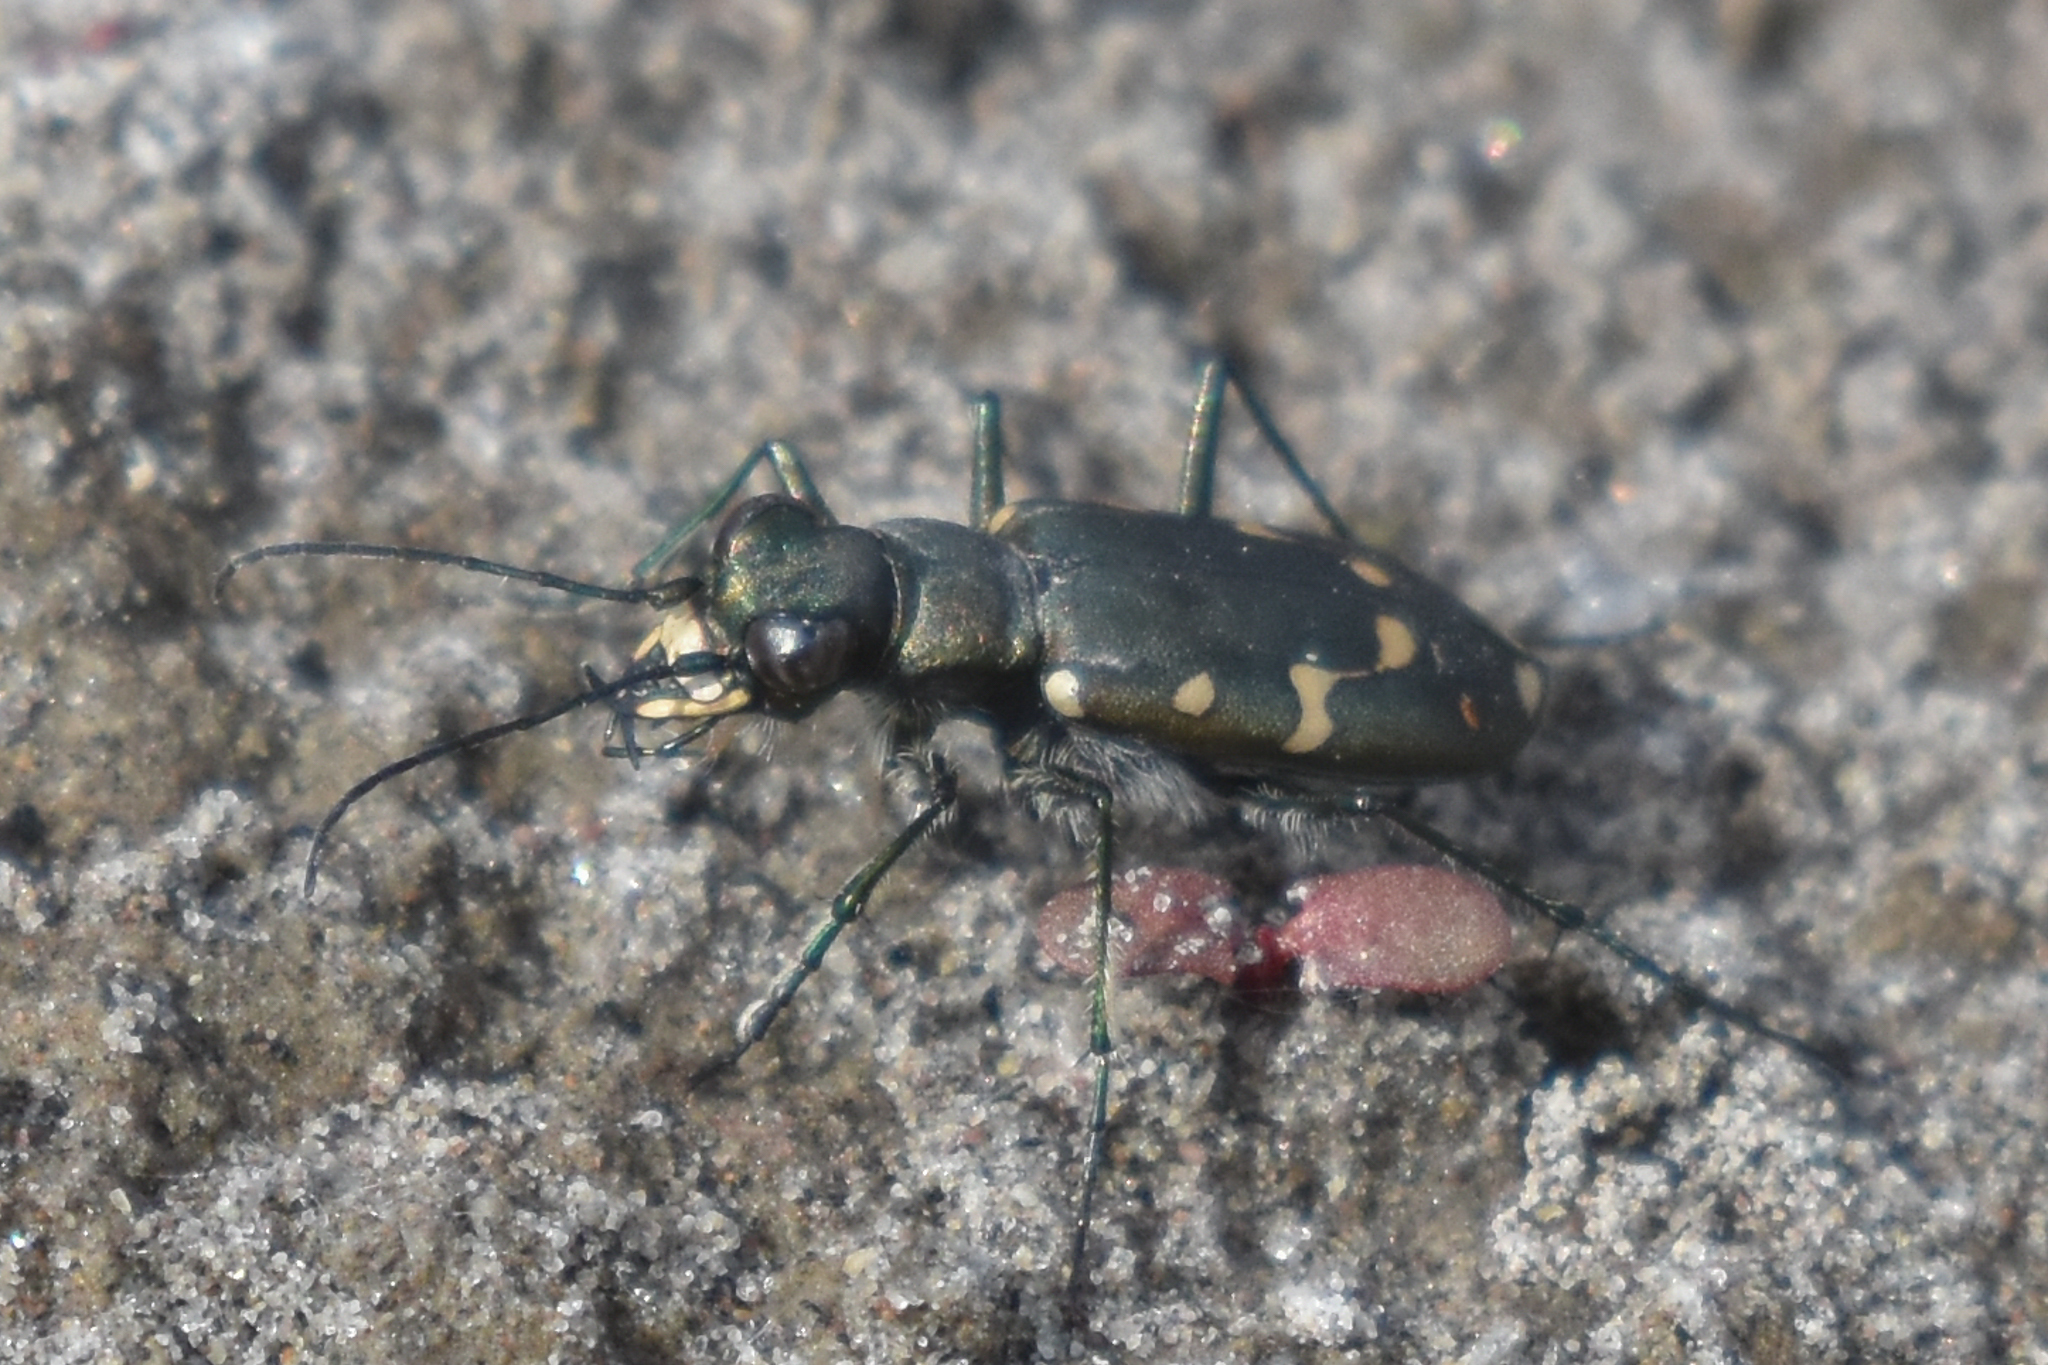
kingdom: Animalia
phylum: Arthropoda
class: Insecta
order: Coleoptera
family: Carabidae
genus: Cicindela
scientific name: Cicindela oregona
